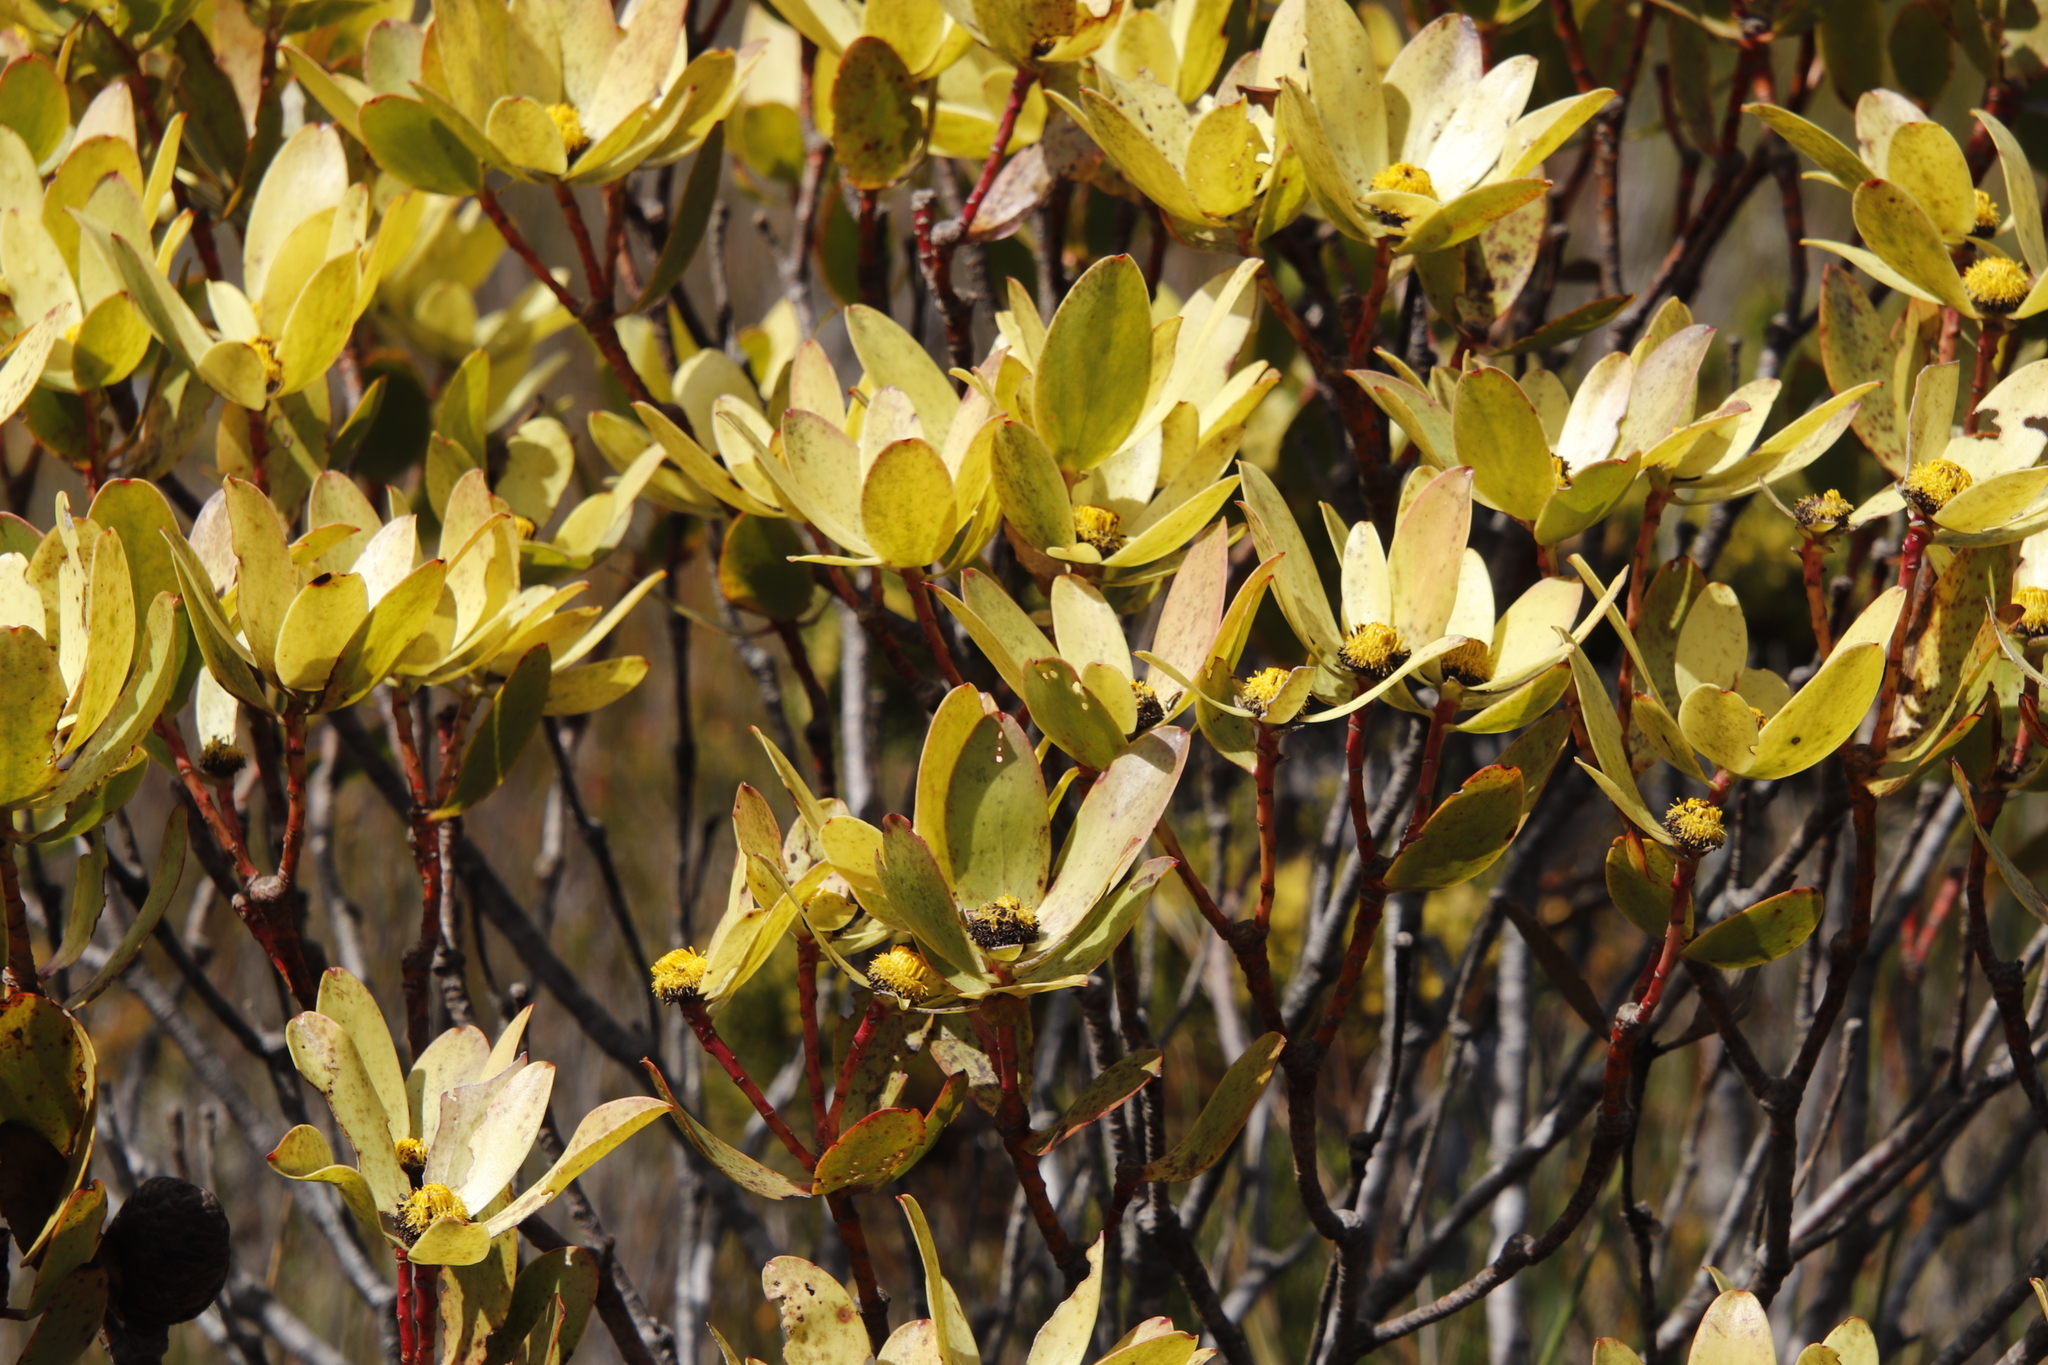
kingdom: Plantae
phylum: Tracheophyta
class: Magnoliopsida
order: Proteales
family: Proteaceae
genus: Leucadendron
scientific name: Leucadendron gandogeri
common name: Broad-leaf conebush
